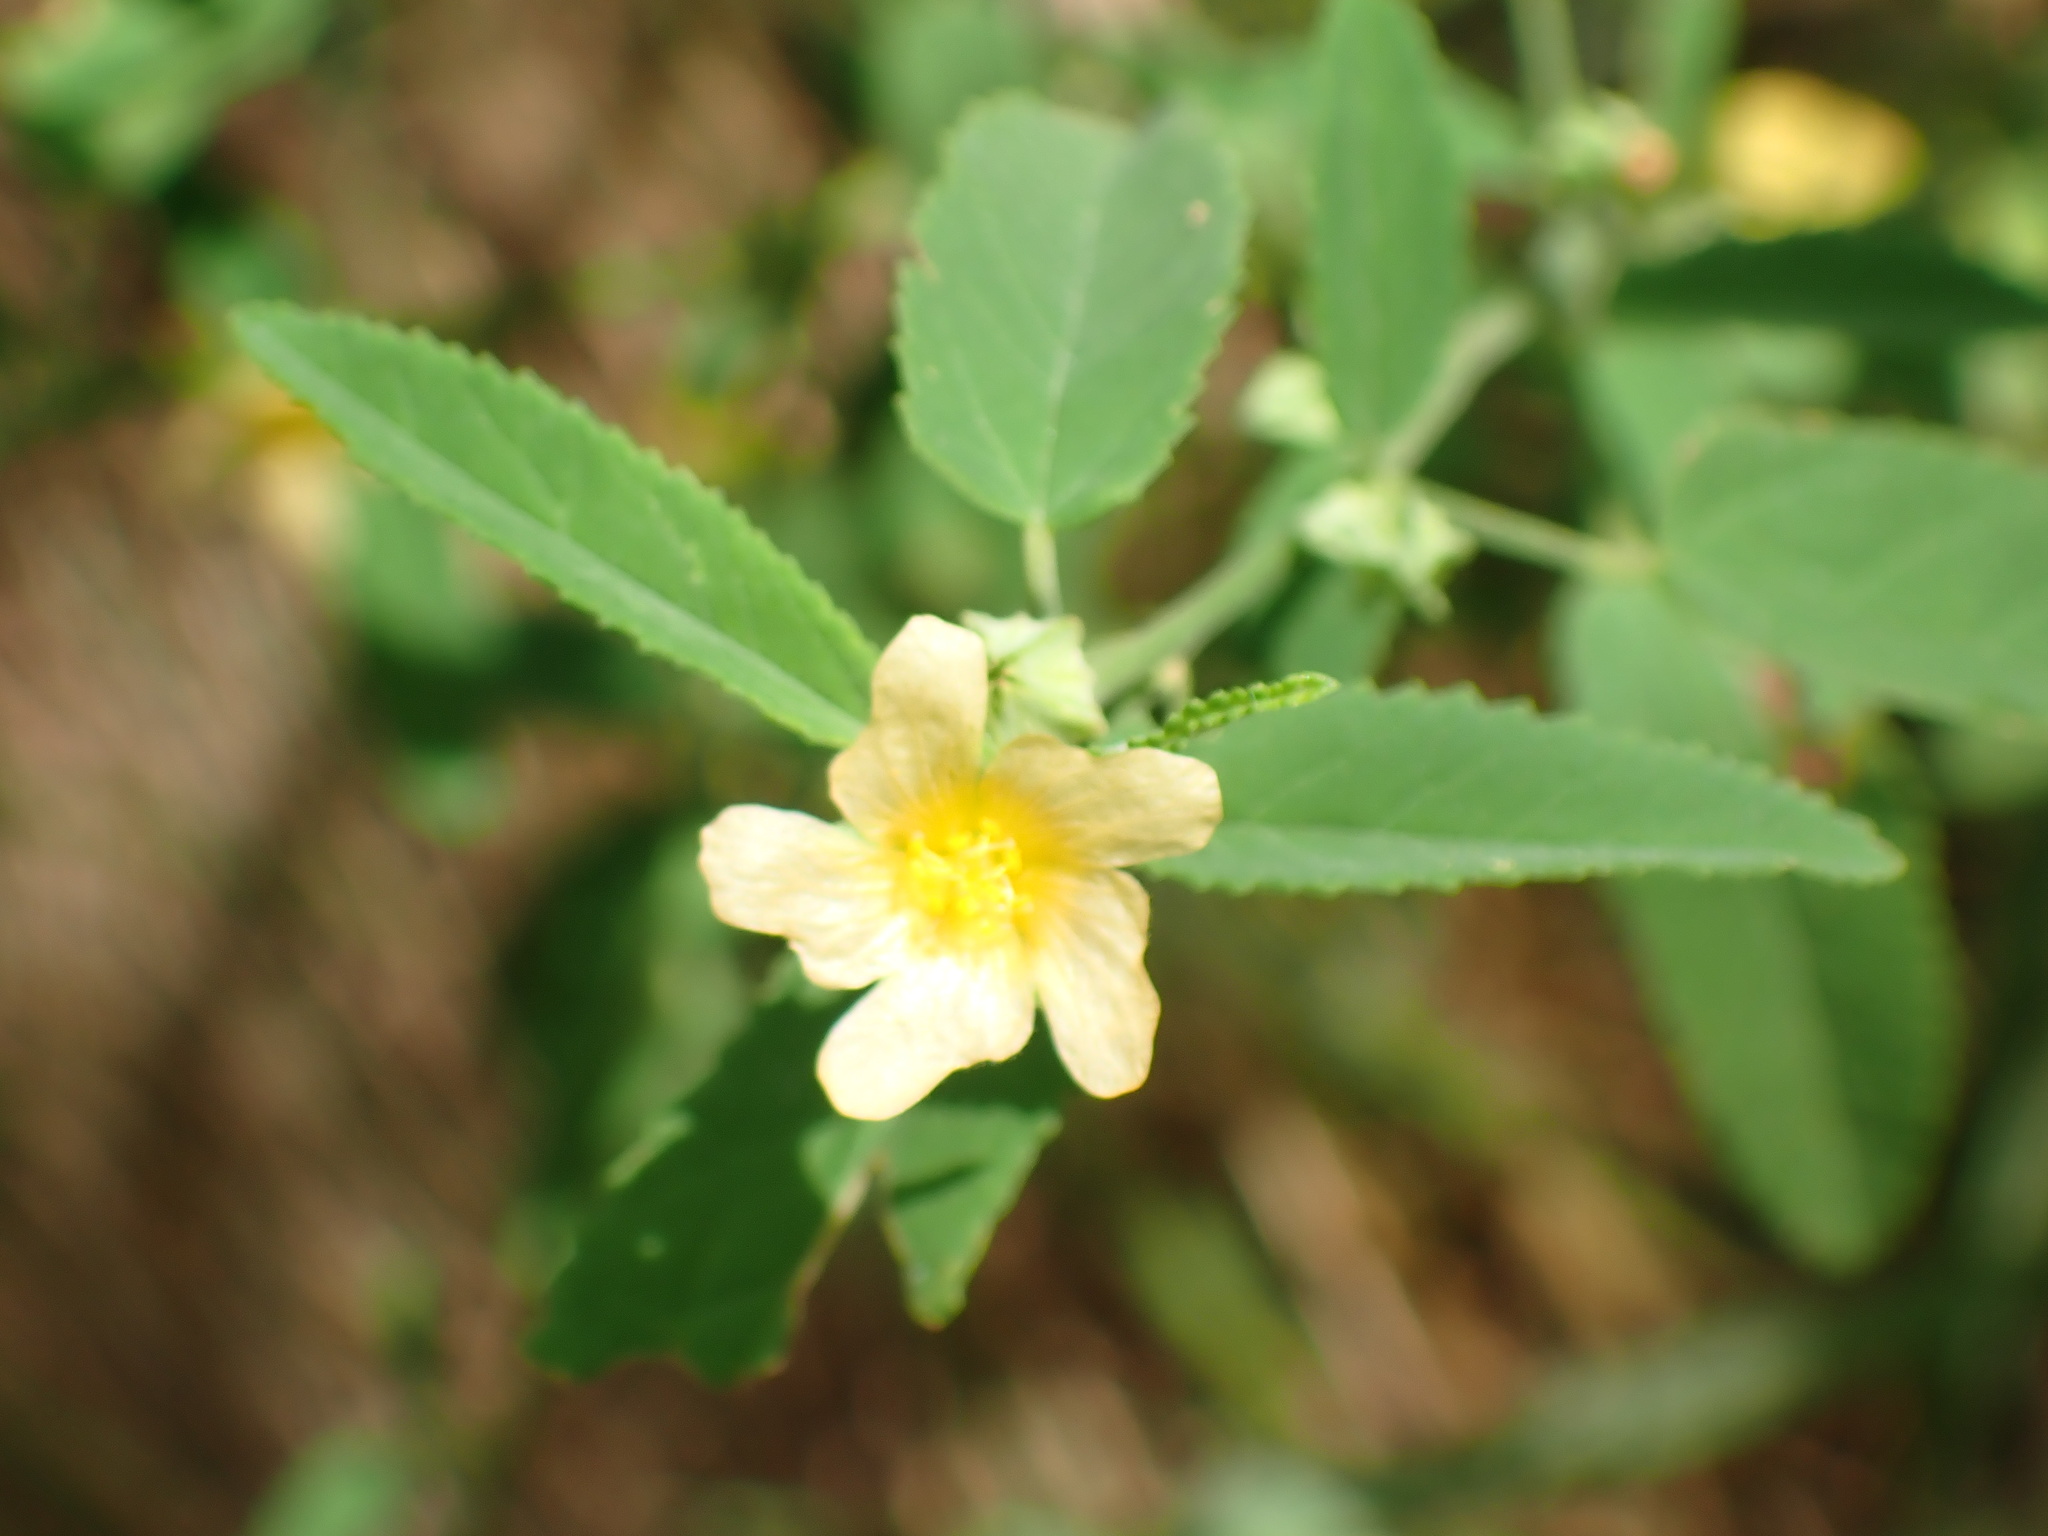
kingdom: Plantae
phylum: Tracheophyta
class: Magnoliopsida
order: Malvales
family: Malvaceae
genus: Sida
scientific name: Sida rhombifolia
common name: Queensland-hemp
